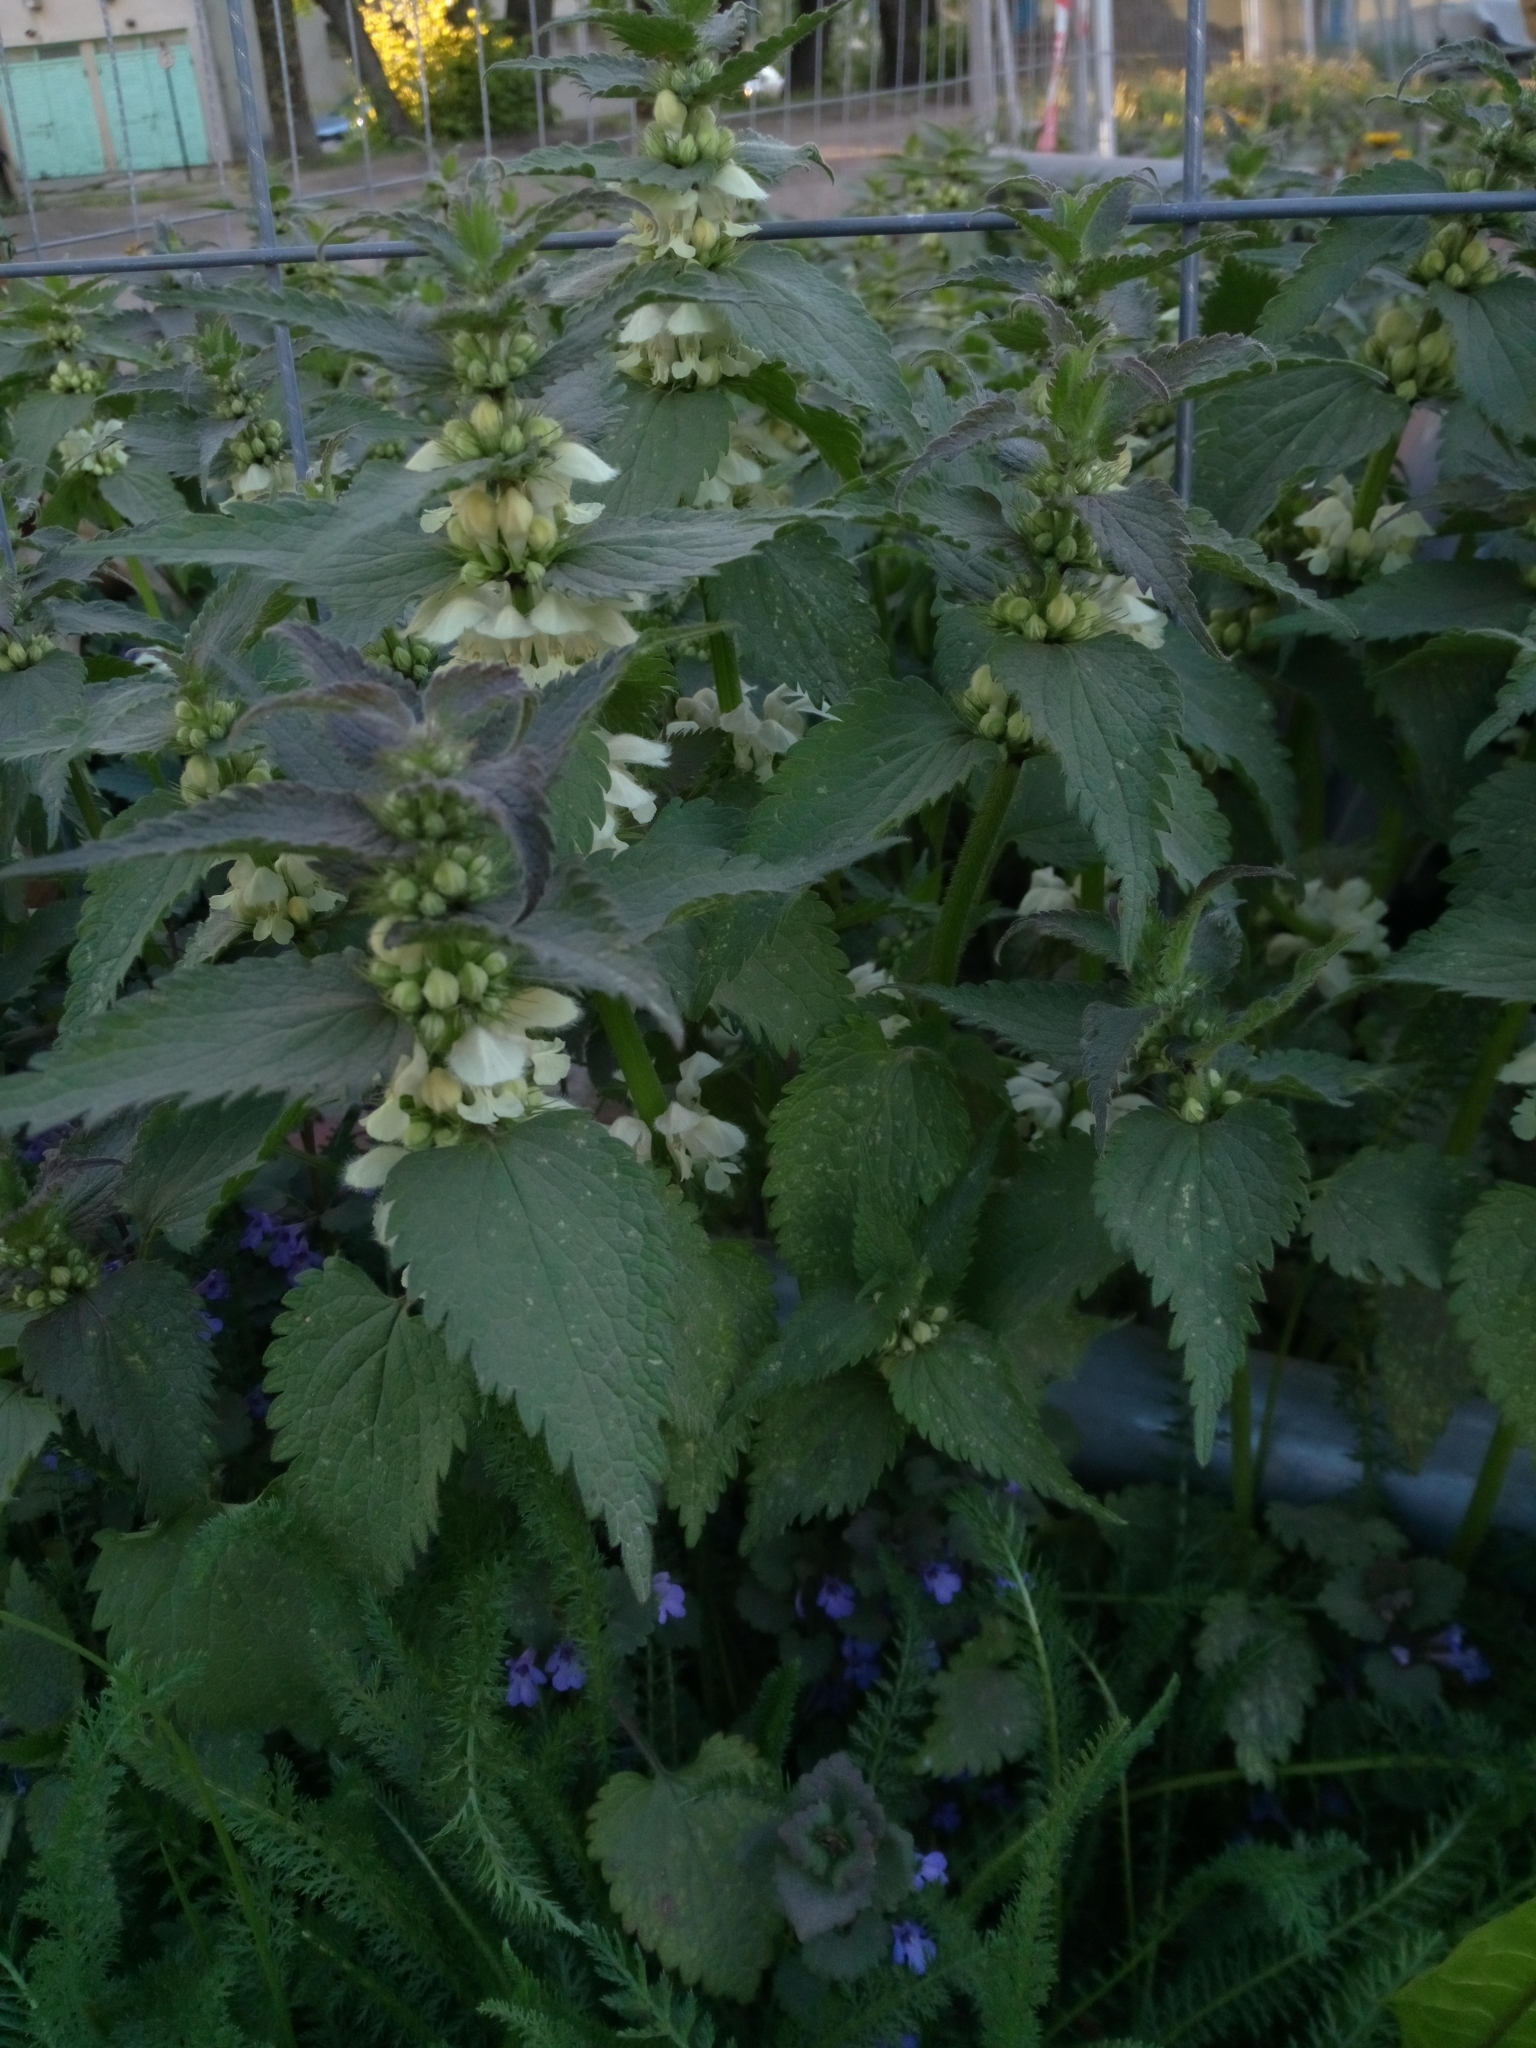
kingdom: Plantae
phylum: Tracheophyta
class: Magnoliopsida
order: Lamiales
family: Lamiaceae
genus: Lamium
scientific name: Lamium album
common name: White dead-nettle
